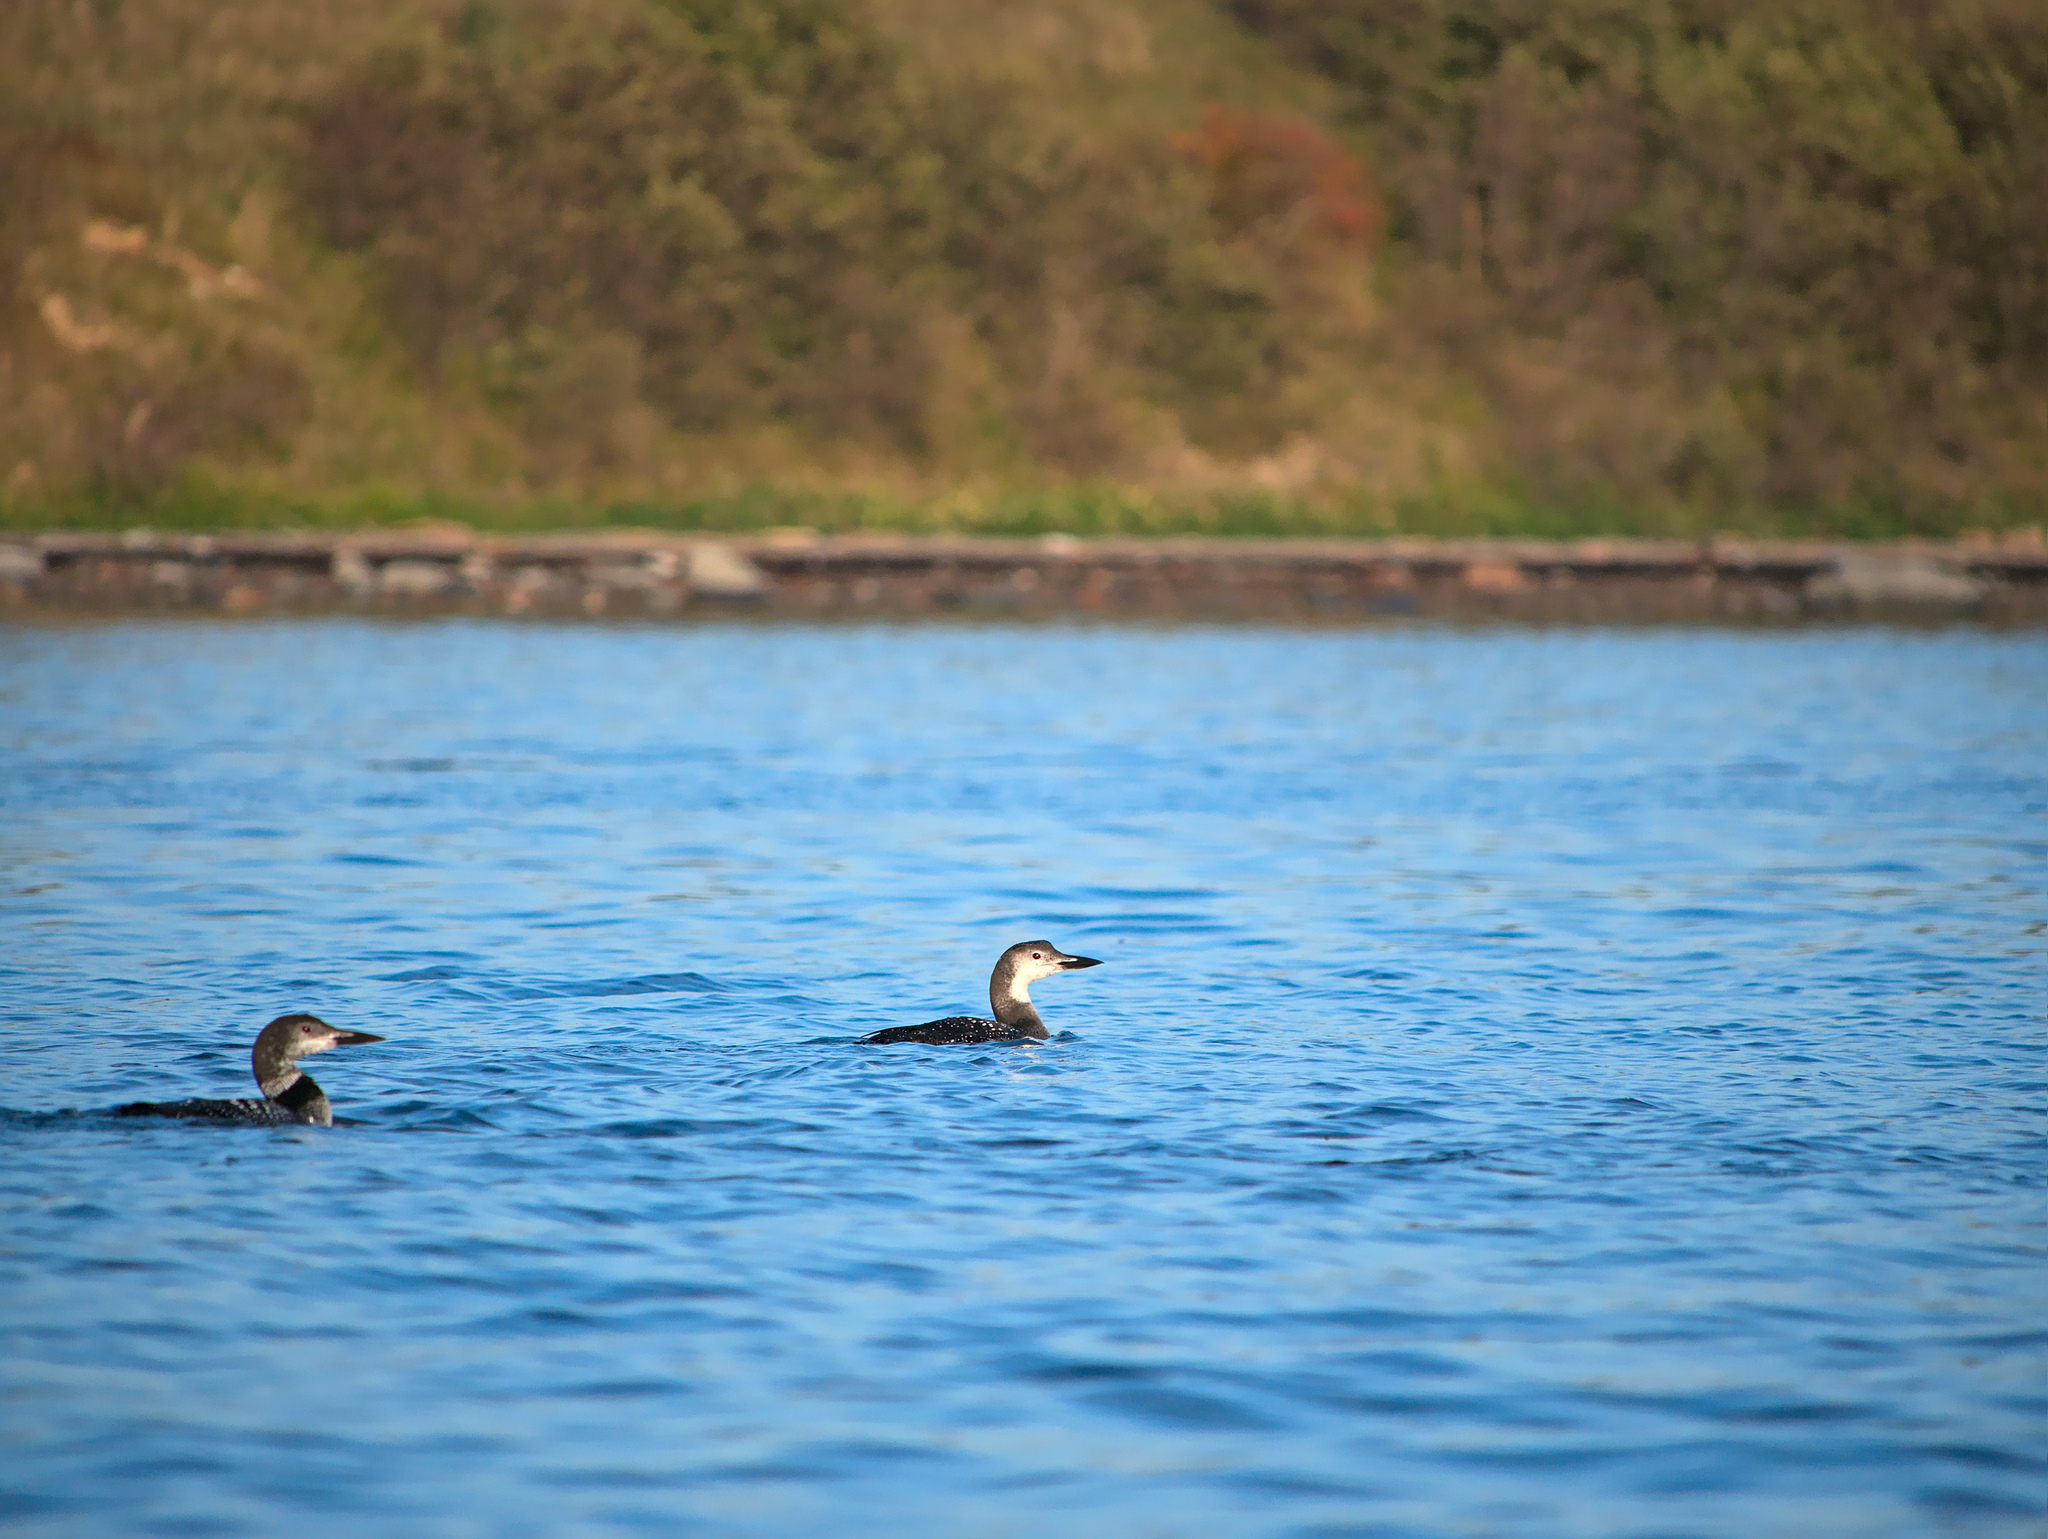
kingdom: Animalia
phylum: Chordata
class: Aves
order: Gaviiformes
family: Gaviidae
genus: Gavia
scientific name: Gavia immer
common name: Common loon
